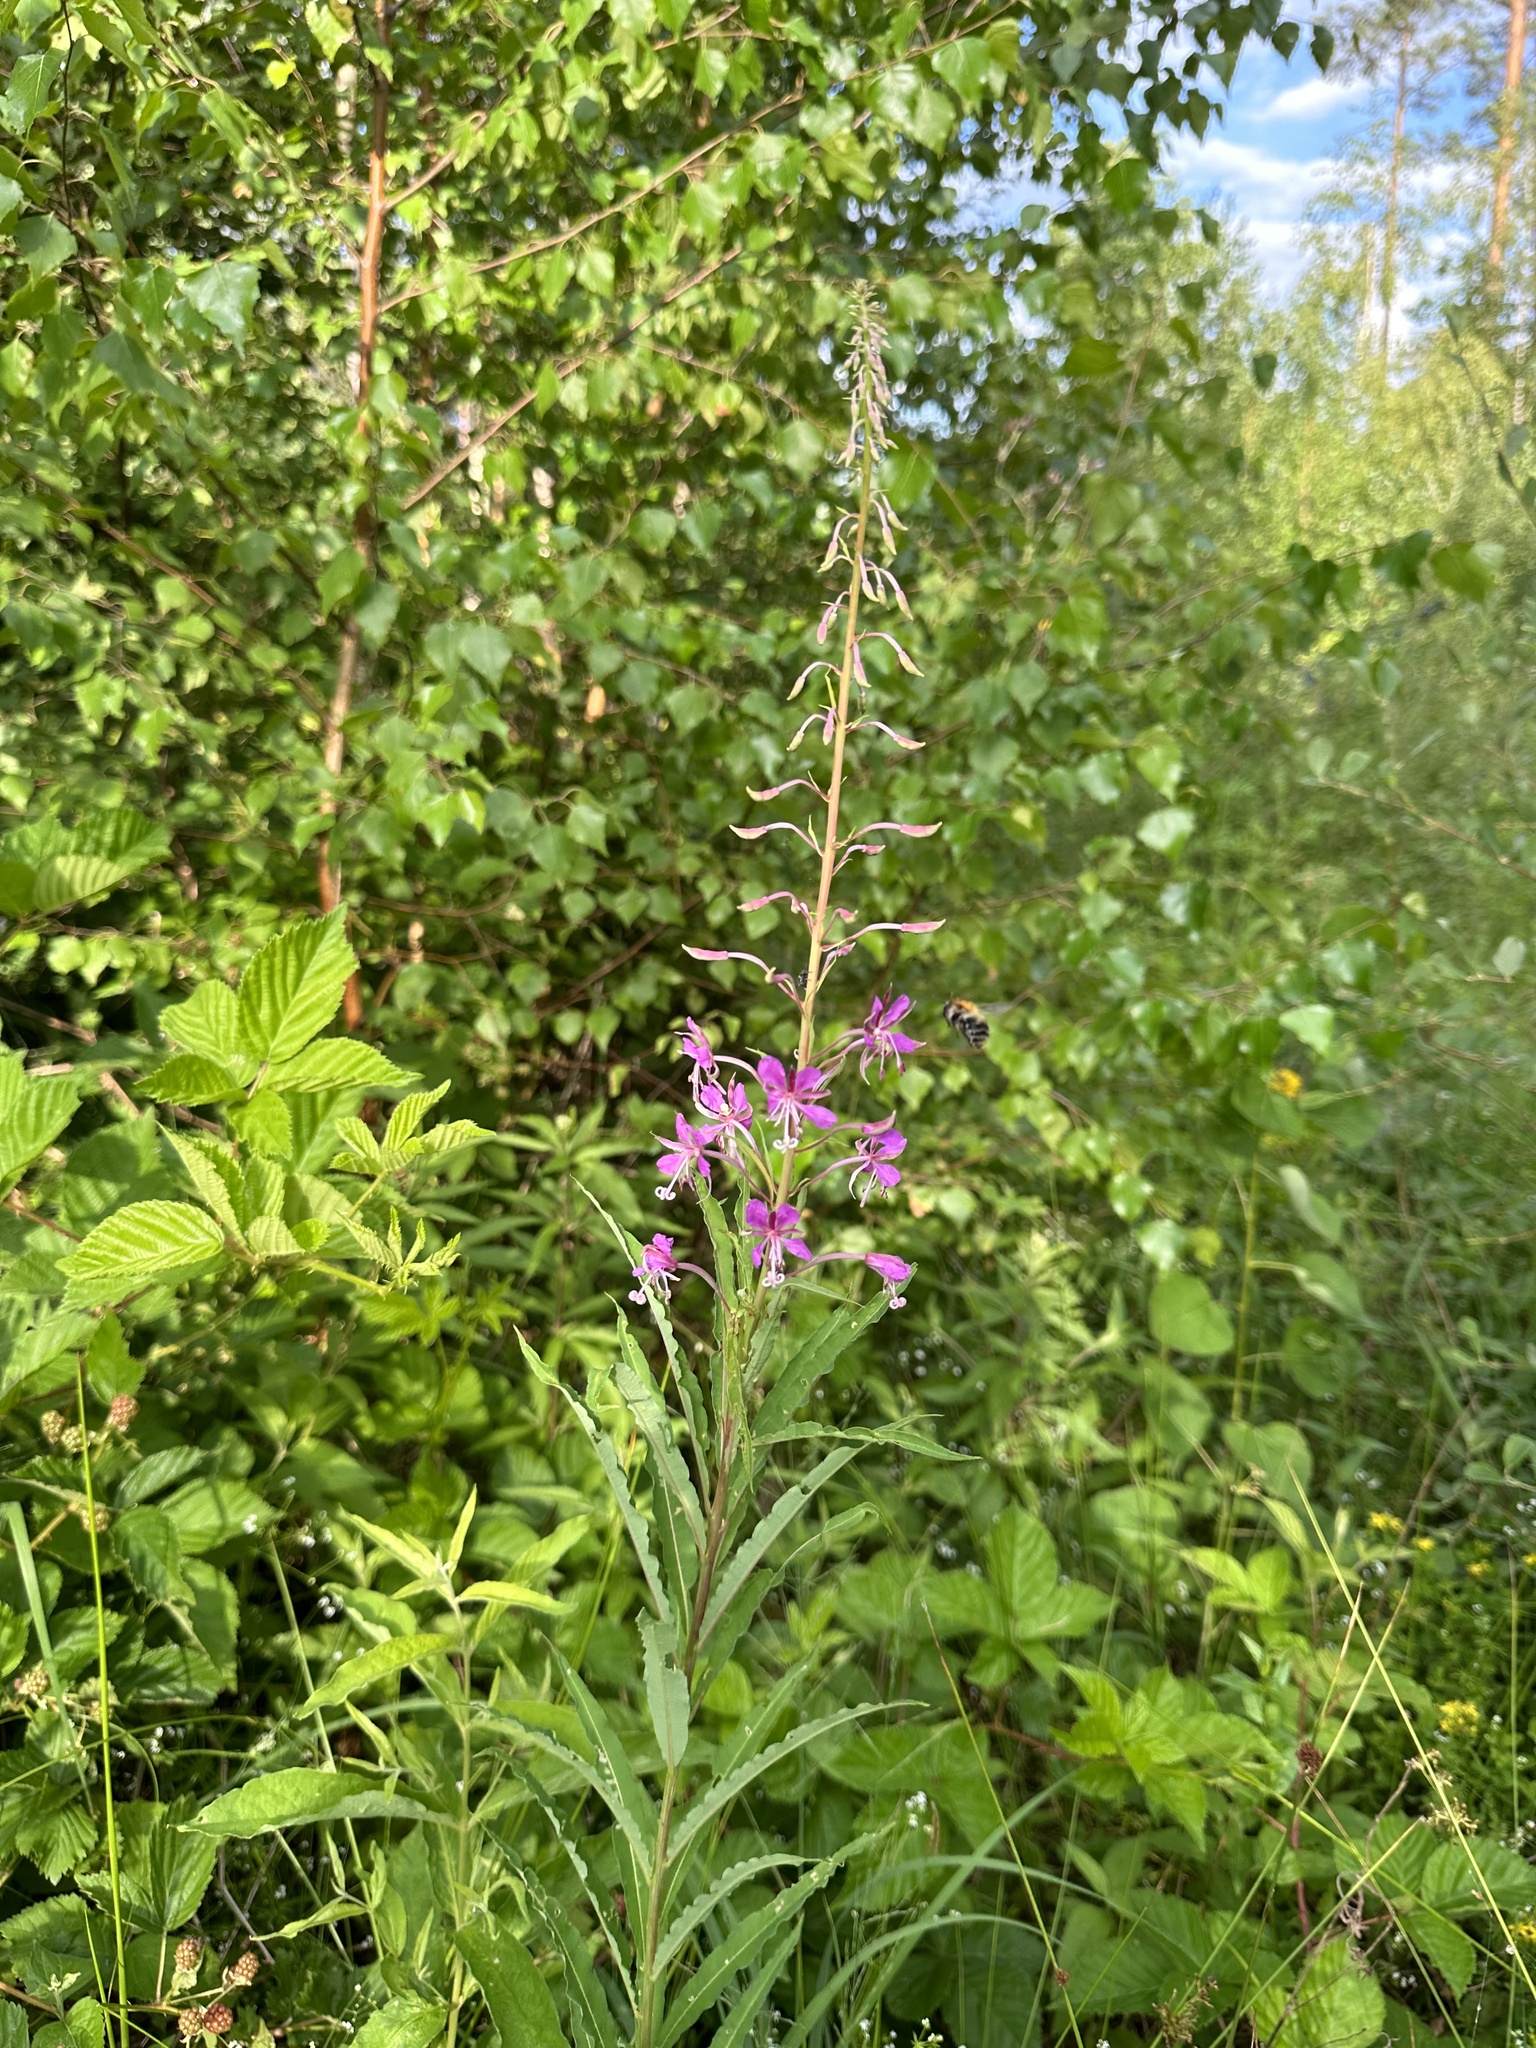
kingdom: Plantae
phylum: Tracheophyta
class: Magnoliopsida
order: Myrtales
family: Onagraceae
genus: Chamaenerion
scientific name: Chamaenerion angustifolium
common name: Fireweed
